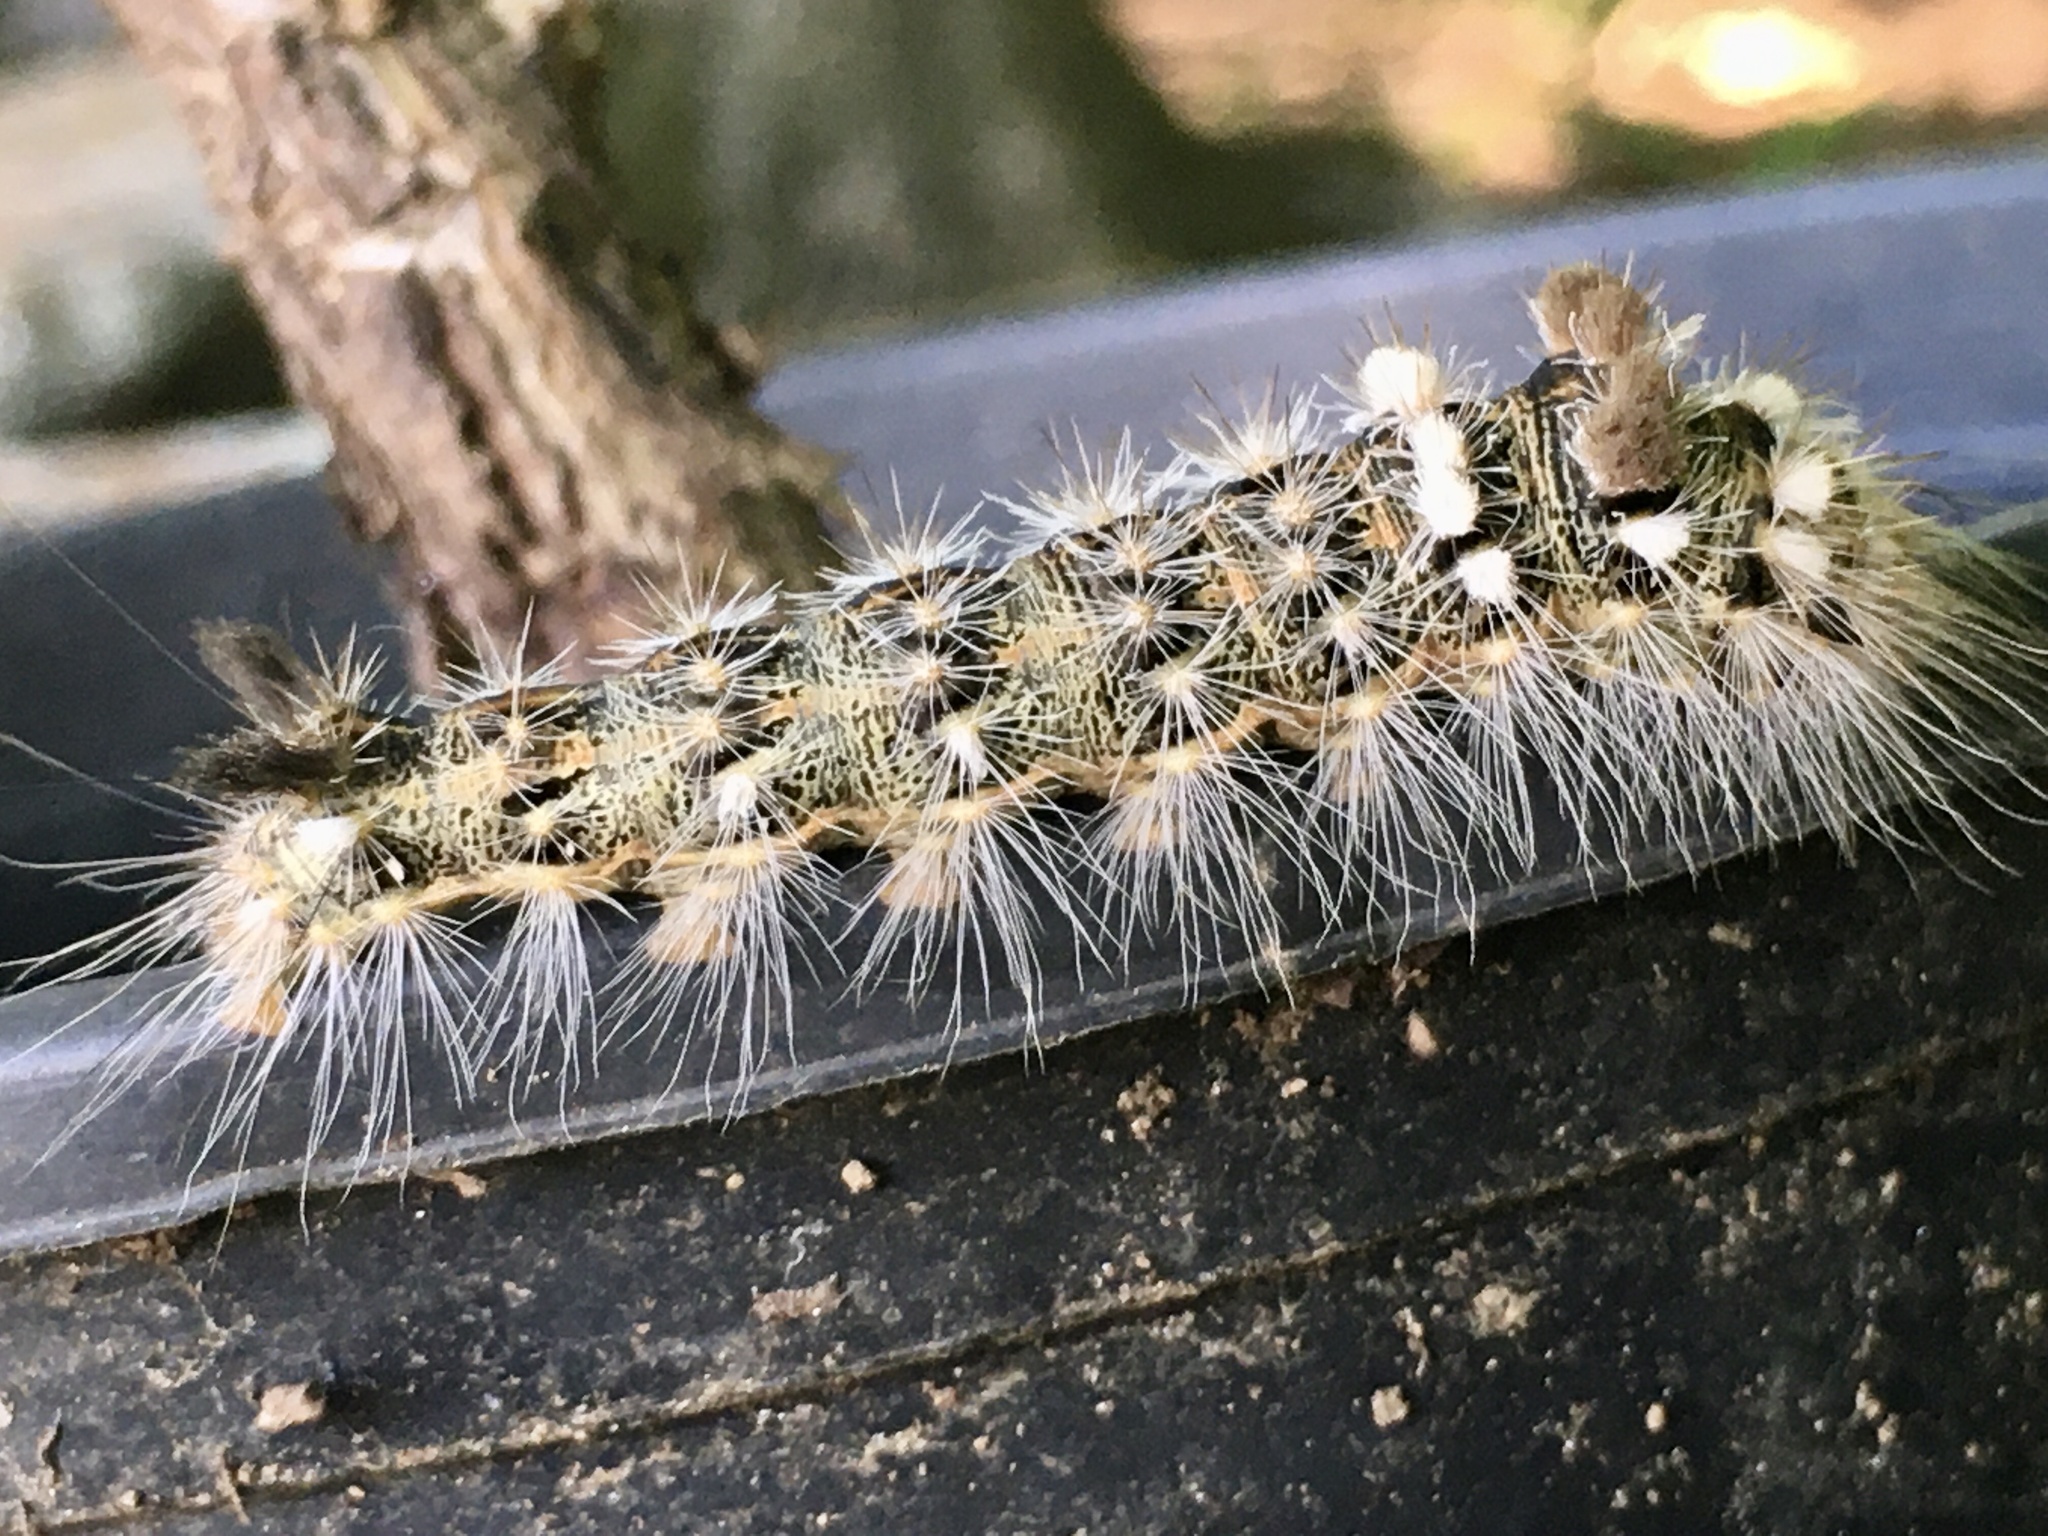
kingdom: Animalia
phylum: Arthropoda
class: Insecta
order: Lepidoptera
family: Noctuidae
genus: Acronicta
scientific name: Acronicta impleta
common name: Powdered dagger
